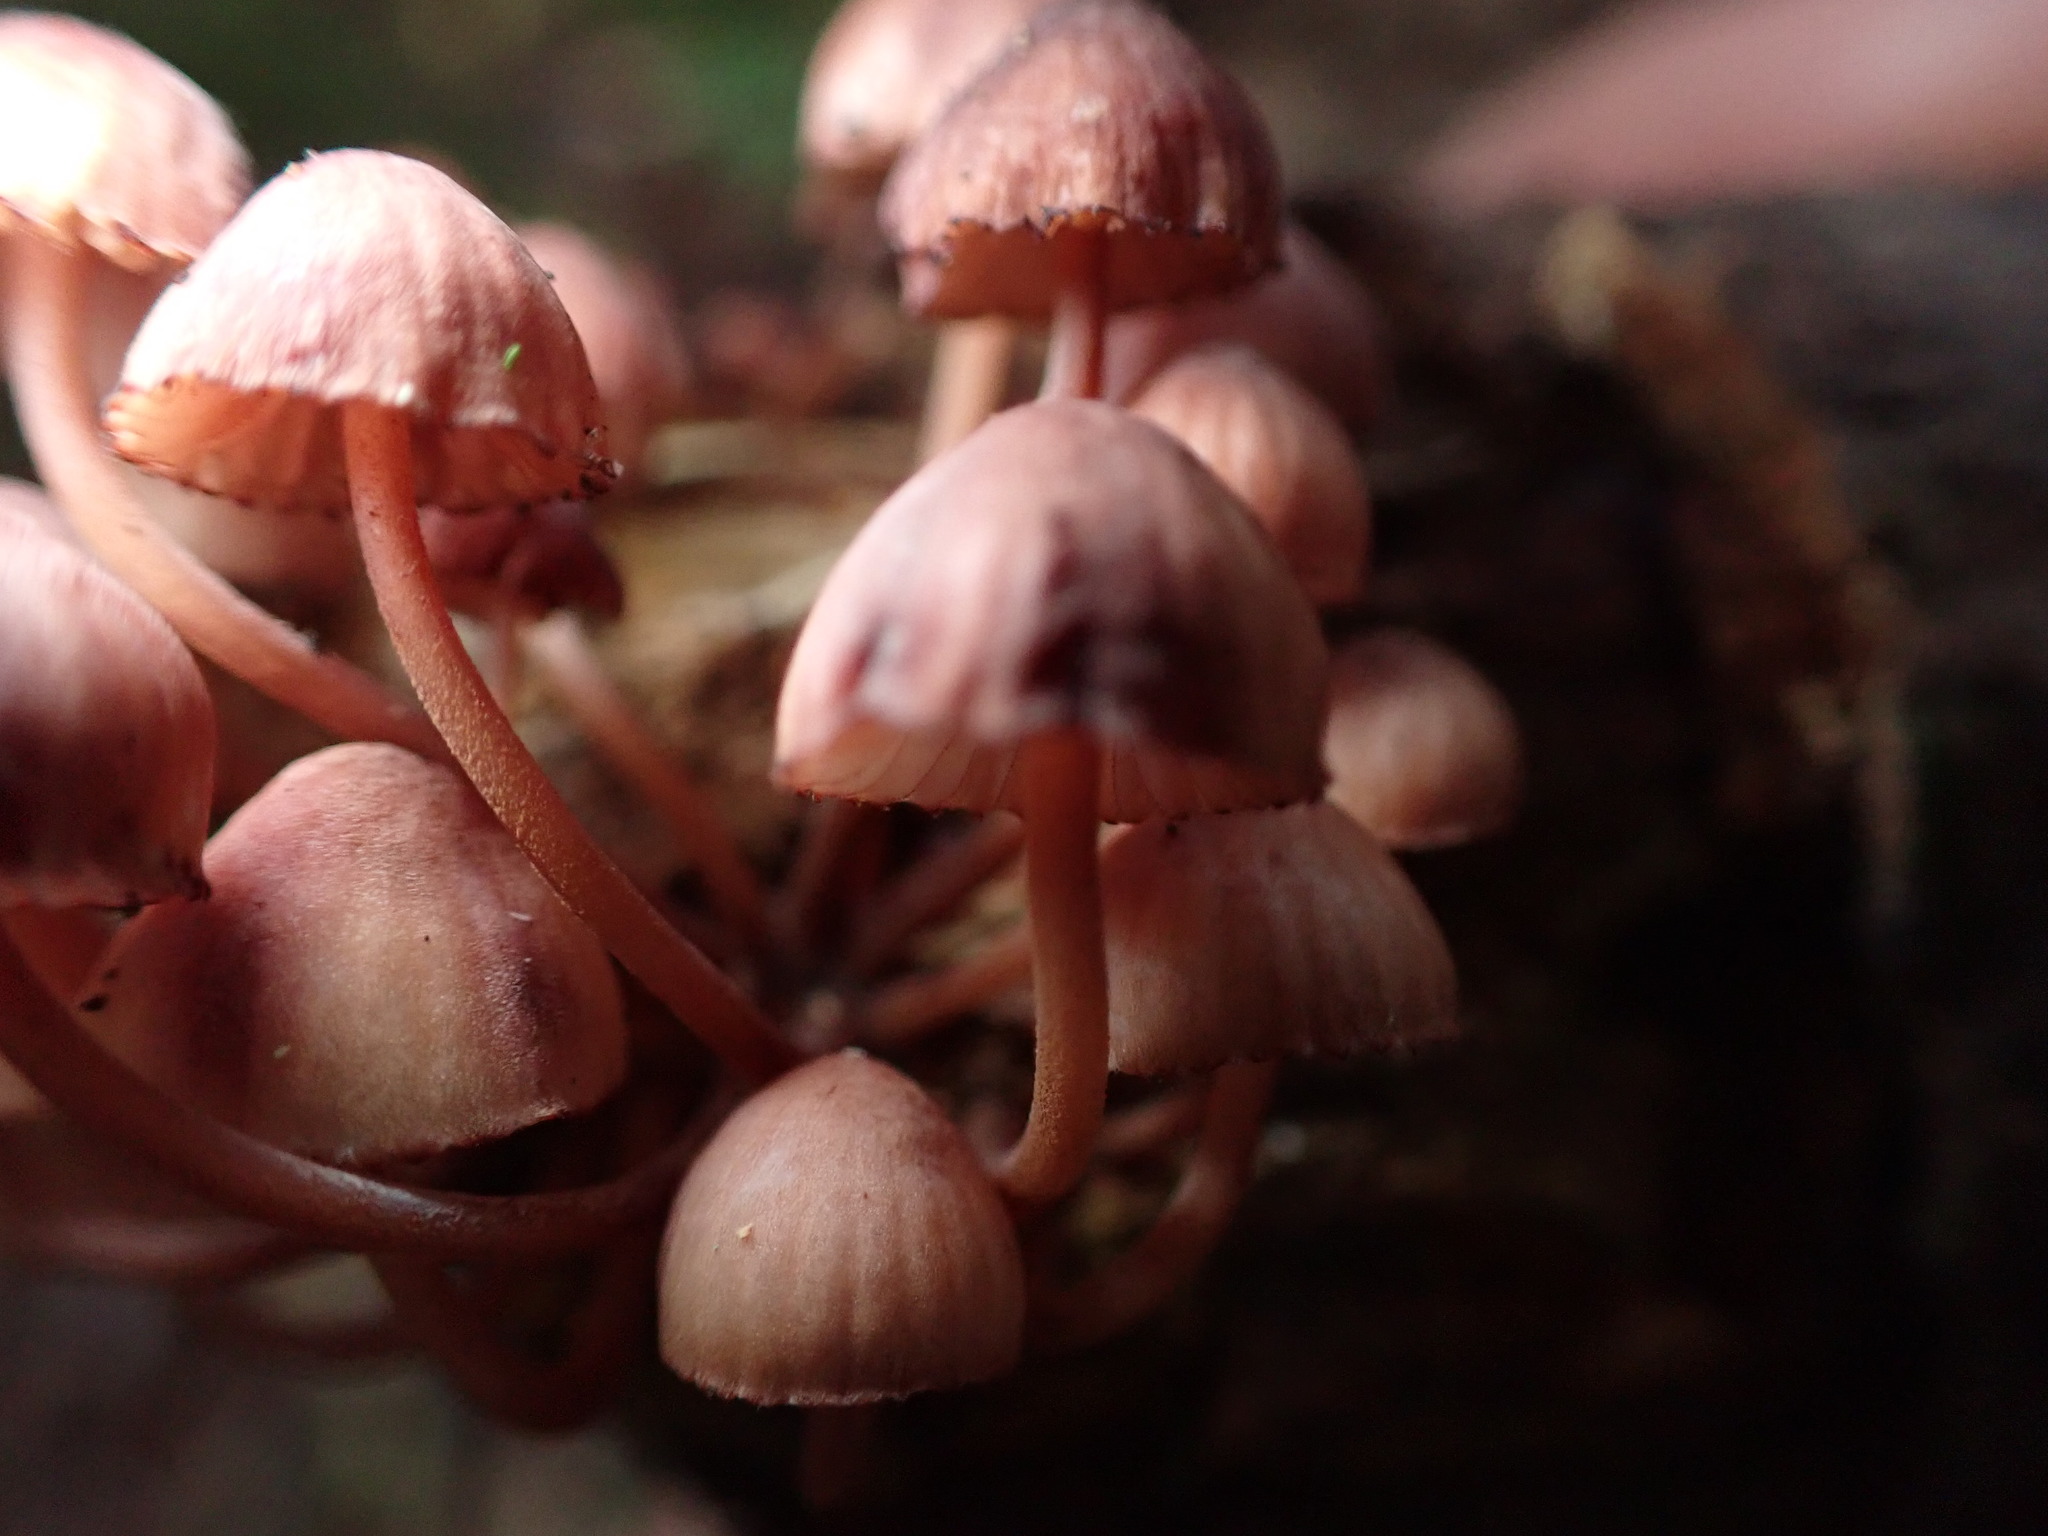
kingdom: Fungi
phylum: Basidiomycota
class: Agaricomycetes
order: Agaricales
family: Mycenaceae
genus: Mycena
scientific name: Mycena mariae
